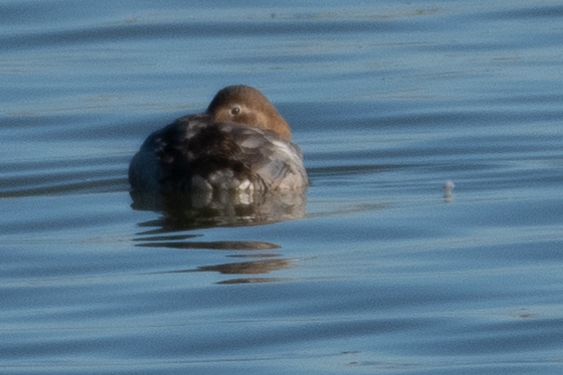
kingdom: Animalia
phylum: Chordata
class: Aves
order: Anseriformes
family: Anatidae
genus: Aythya
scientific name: Aythya valisineria
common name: Canvasback
